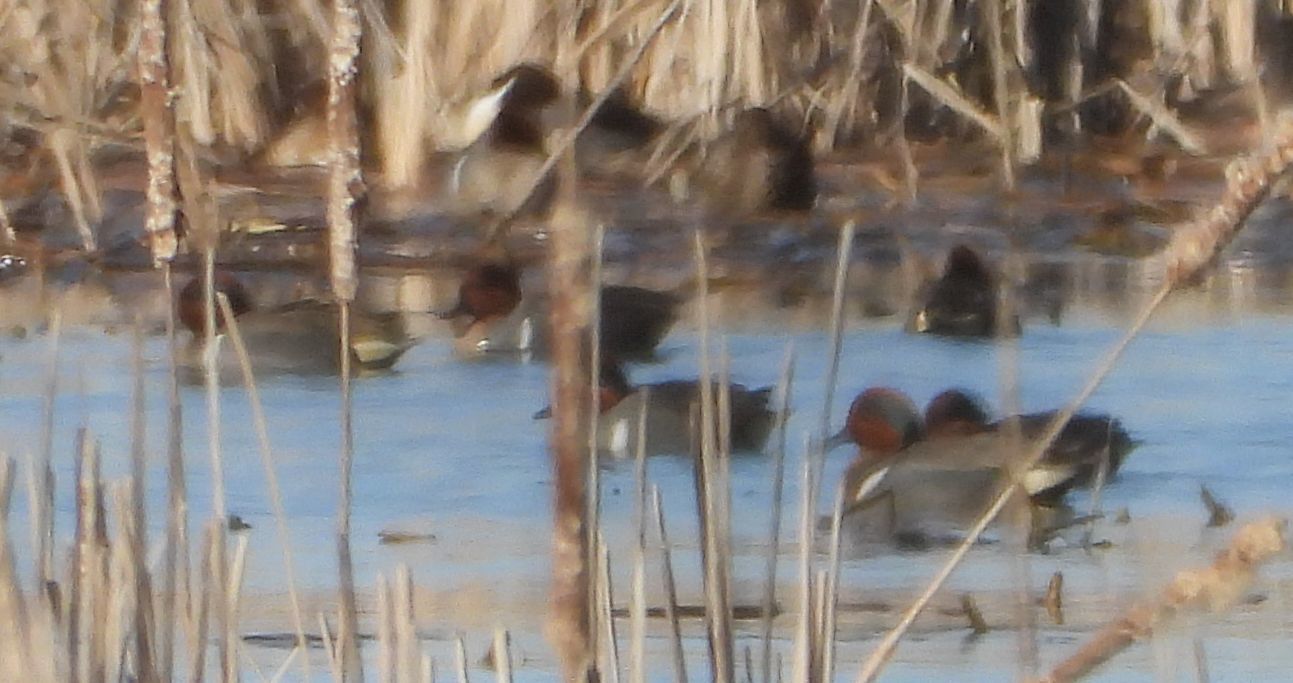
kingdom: Animalia
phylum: Chordata
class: Aves
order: Anseriformes
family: Anatidae
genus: Anas
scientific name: Anas crecca
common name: Eurasian teal
